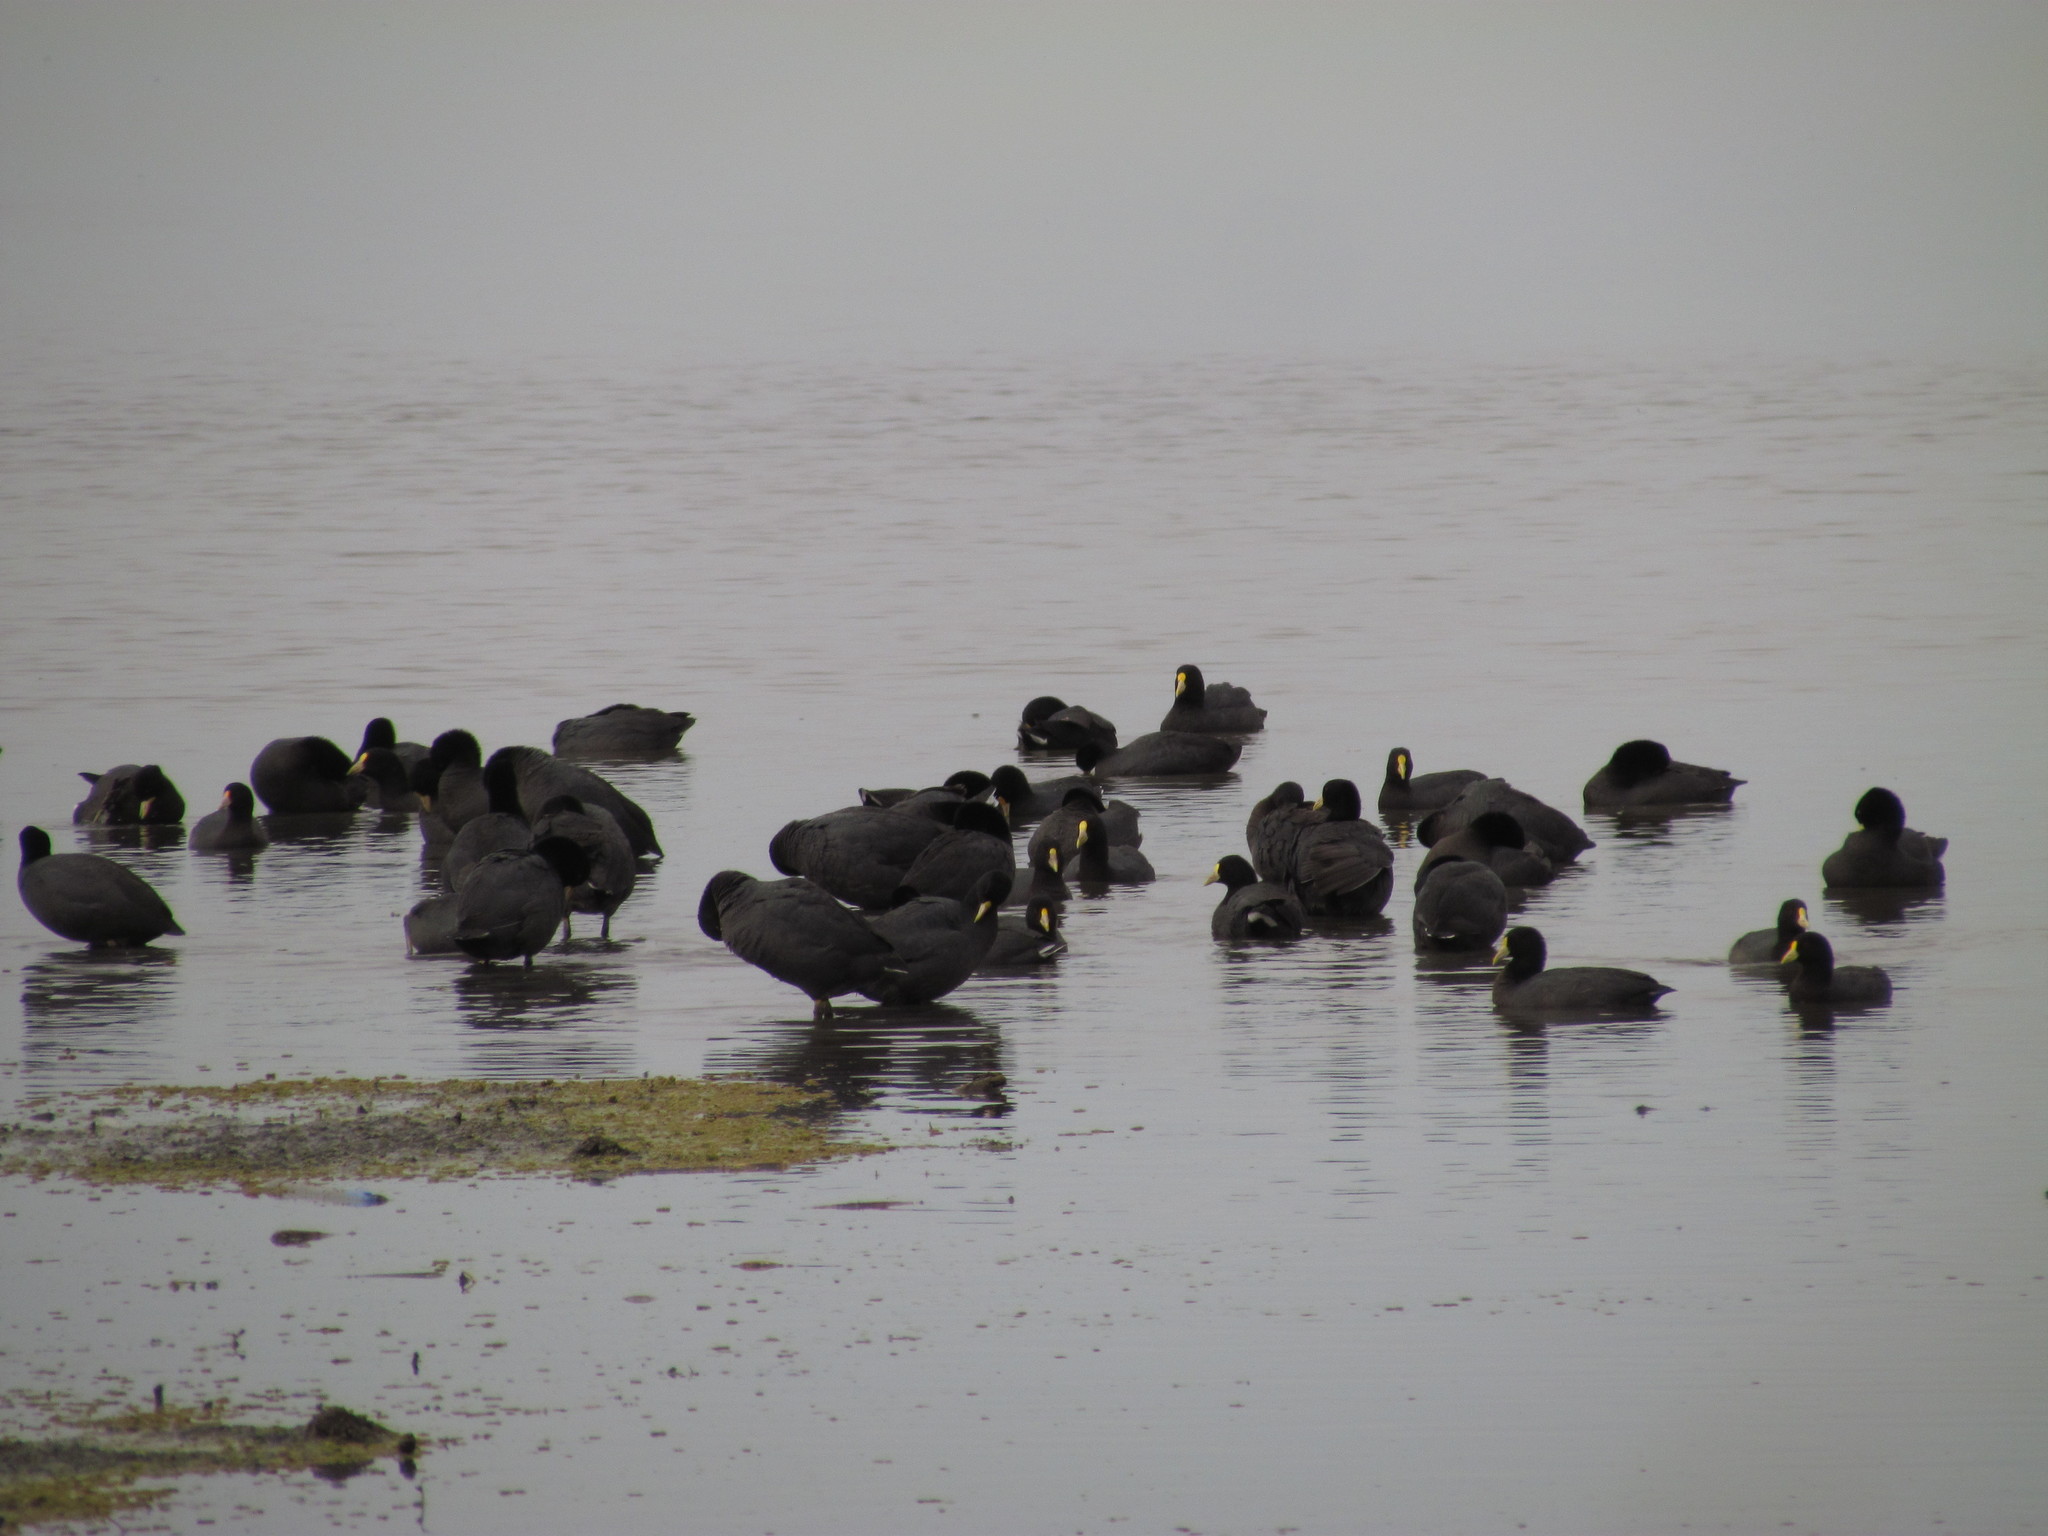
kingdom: Animalia
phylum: Chordata
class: Aves
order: Gruiformes
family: Rallidae
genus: Fulica
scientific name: Fulica leucoptera
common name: White-winged coot
